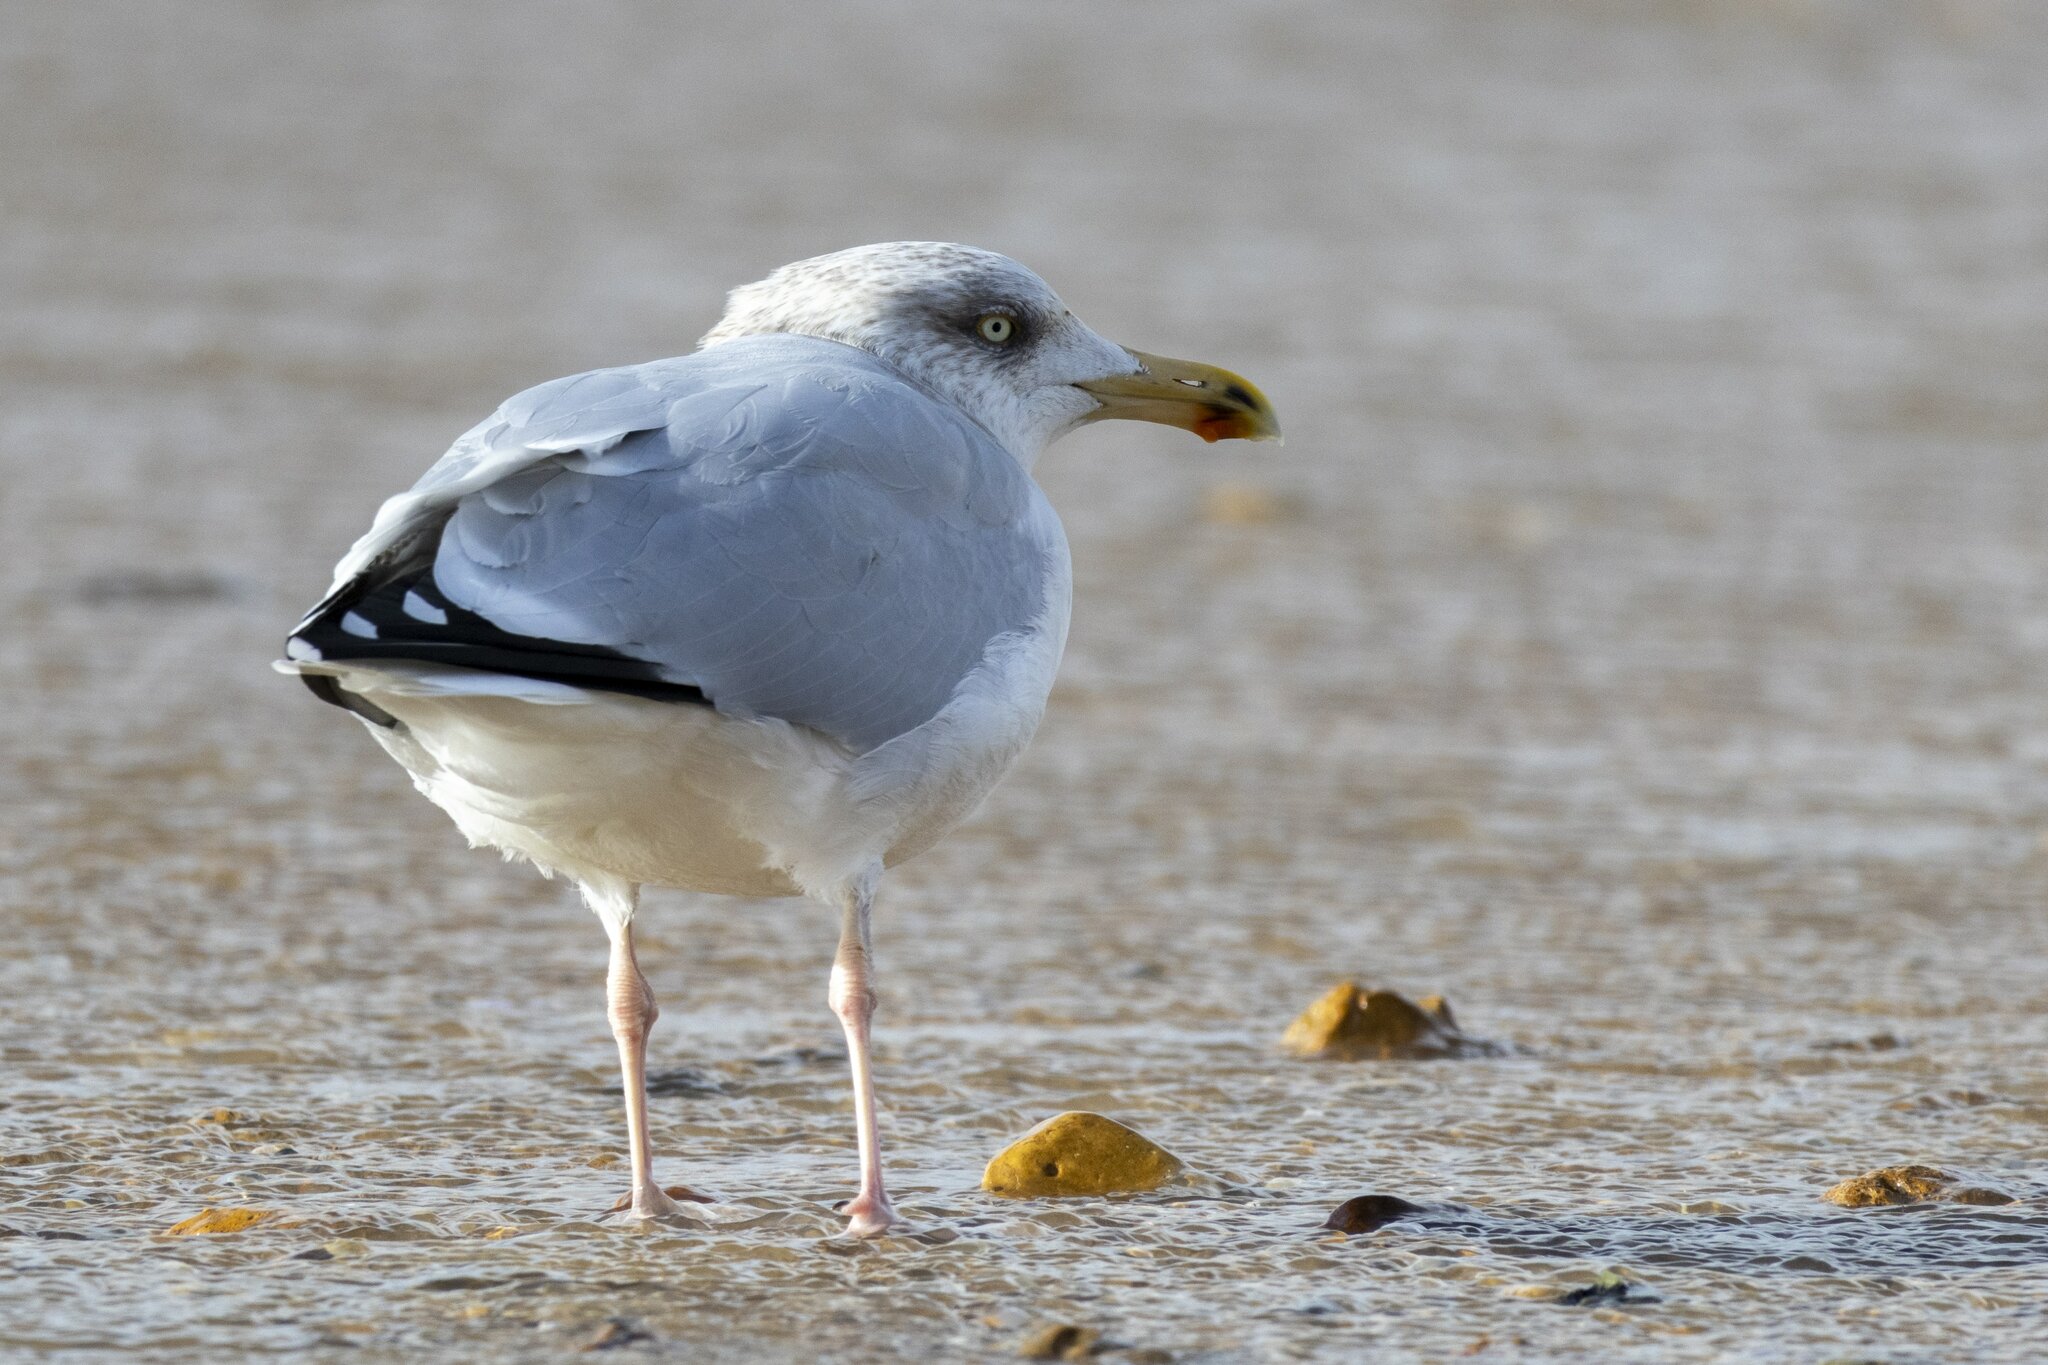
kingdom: Animalia
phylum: Chordata
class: Aves
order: Charadriiformes
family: Laridae
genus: Larus
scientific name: Larus argentatus
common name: Herring gull
